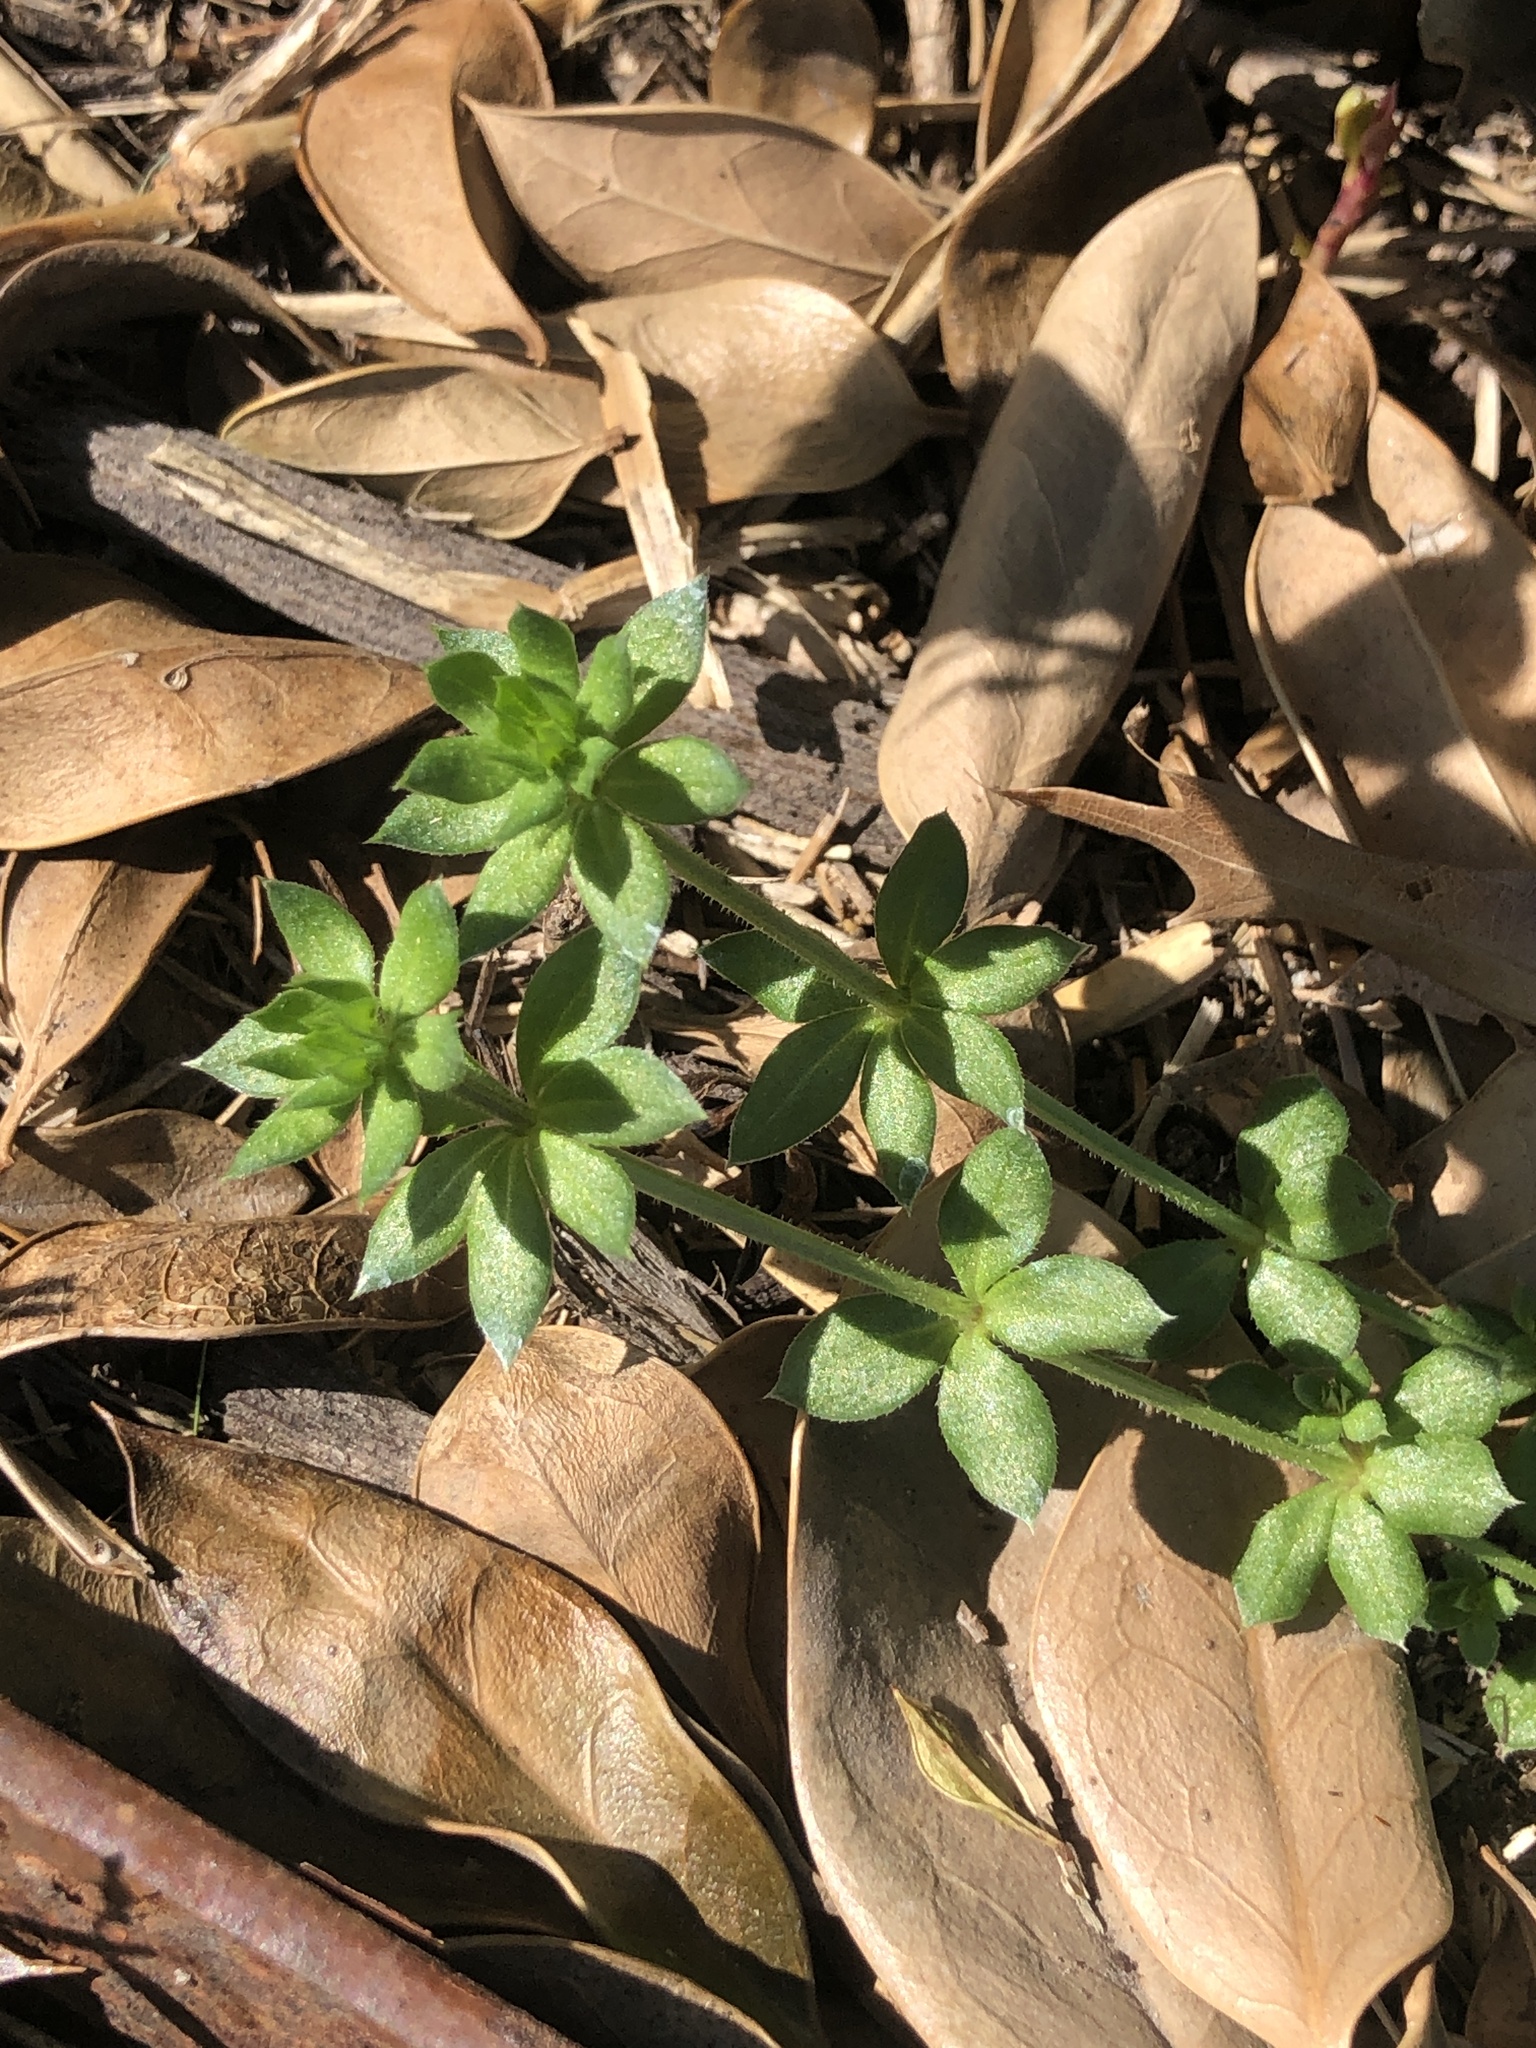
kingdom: Plantae
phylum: Tracheophyta
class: Magnoliopsida
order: Gentianales
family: Rubiaceae
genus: Sherardia
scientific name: Sherardia arvensis
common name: Field madder
